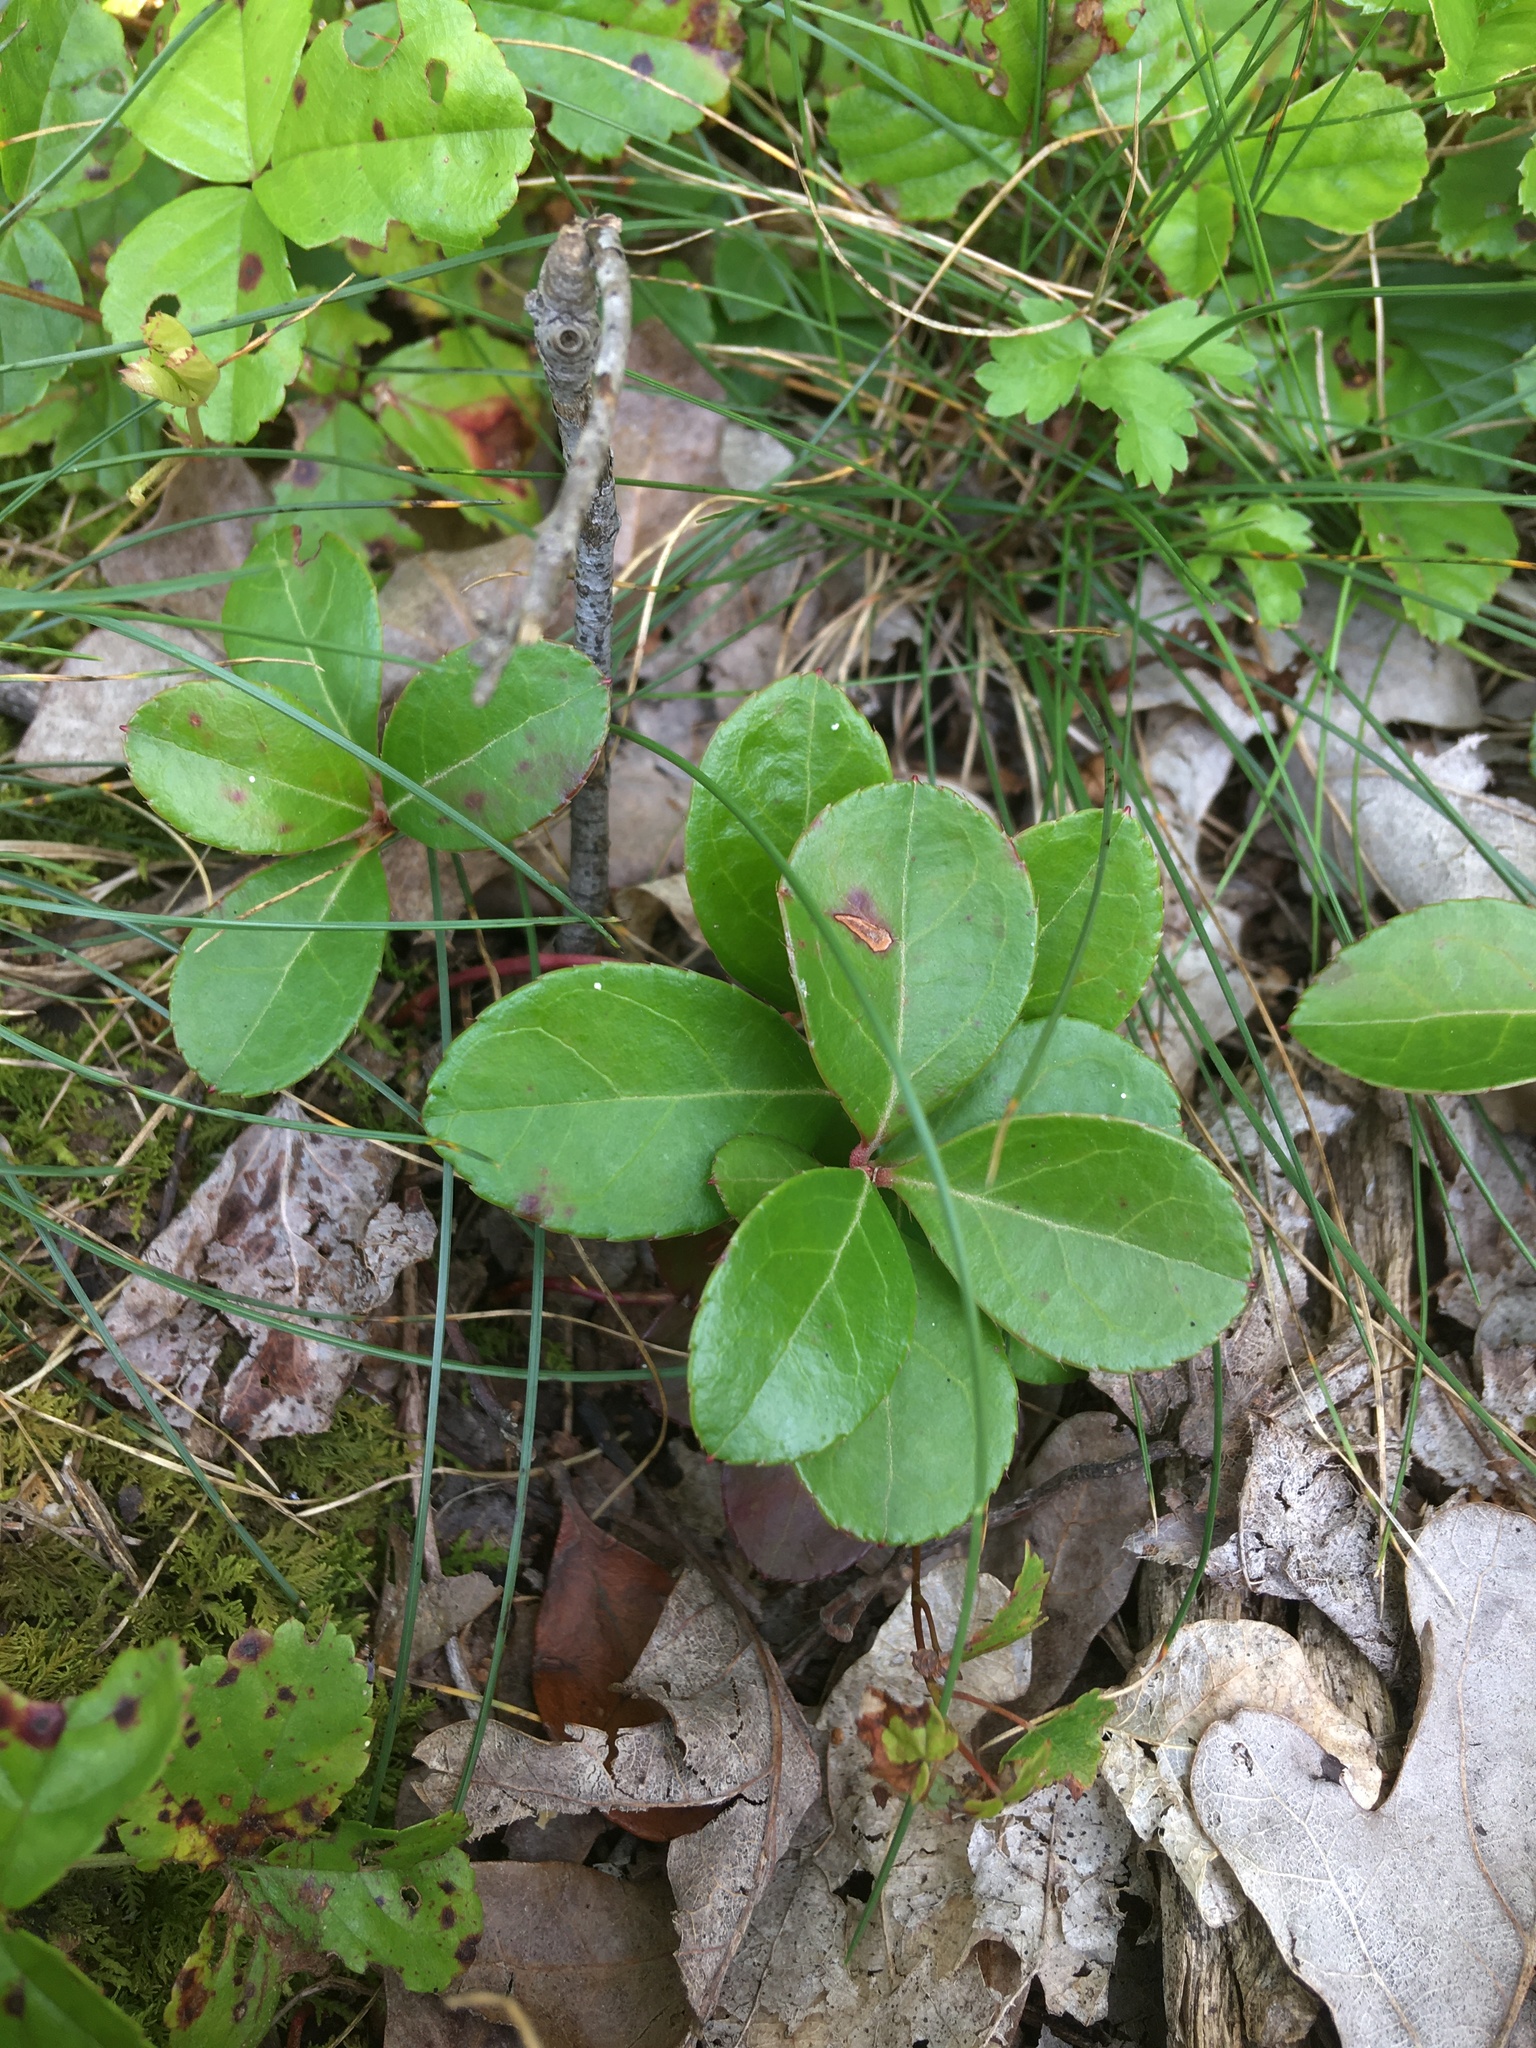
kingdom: Plantae
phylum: Tracheophyta
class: Magnoliopsida
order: Ericales
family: Ericaceae
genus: Gaultheria
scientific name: Gaultheria procumbens
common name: Checkerberry
